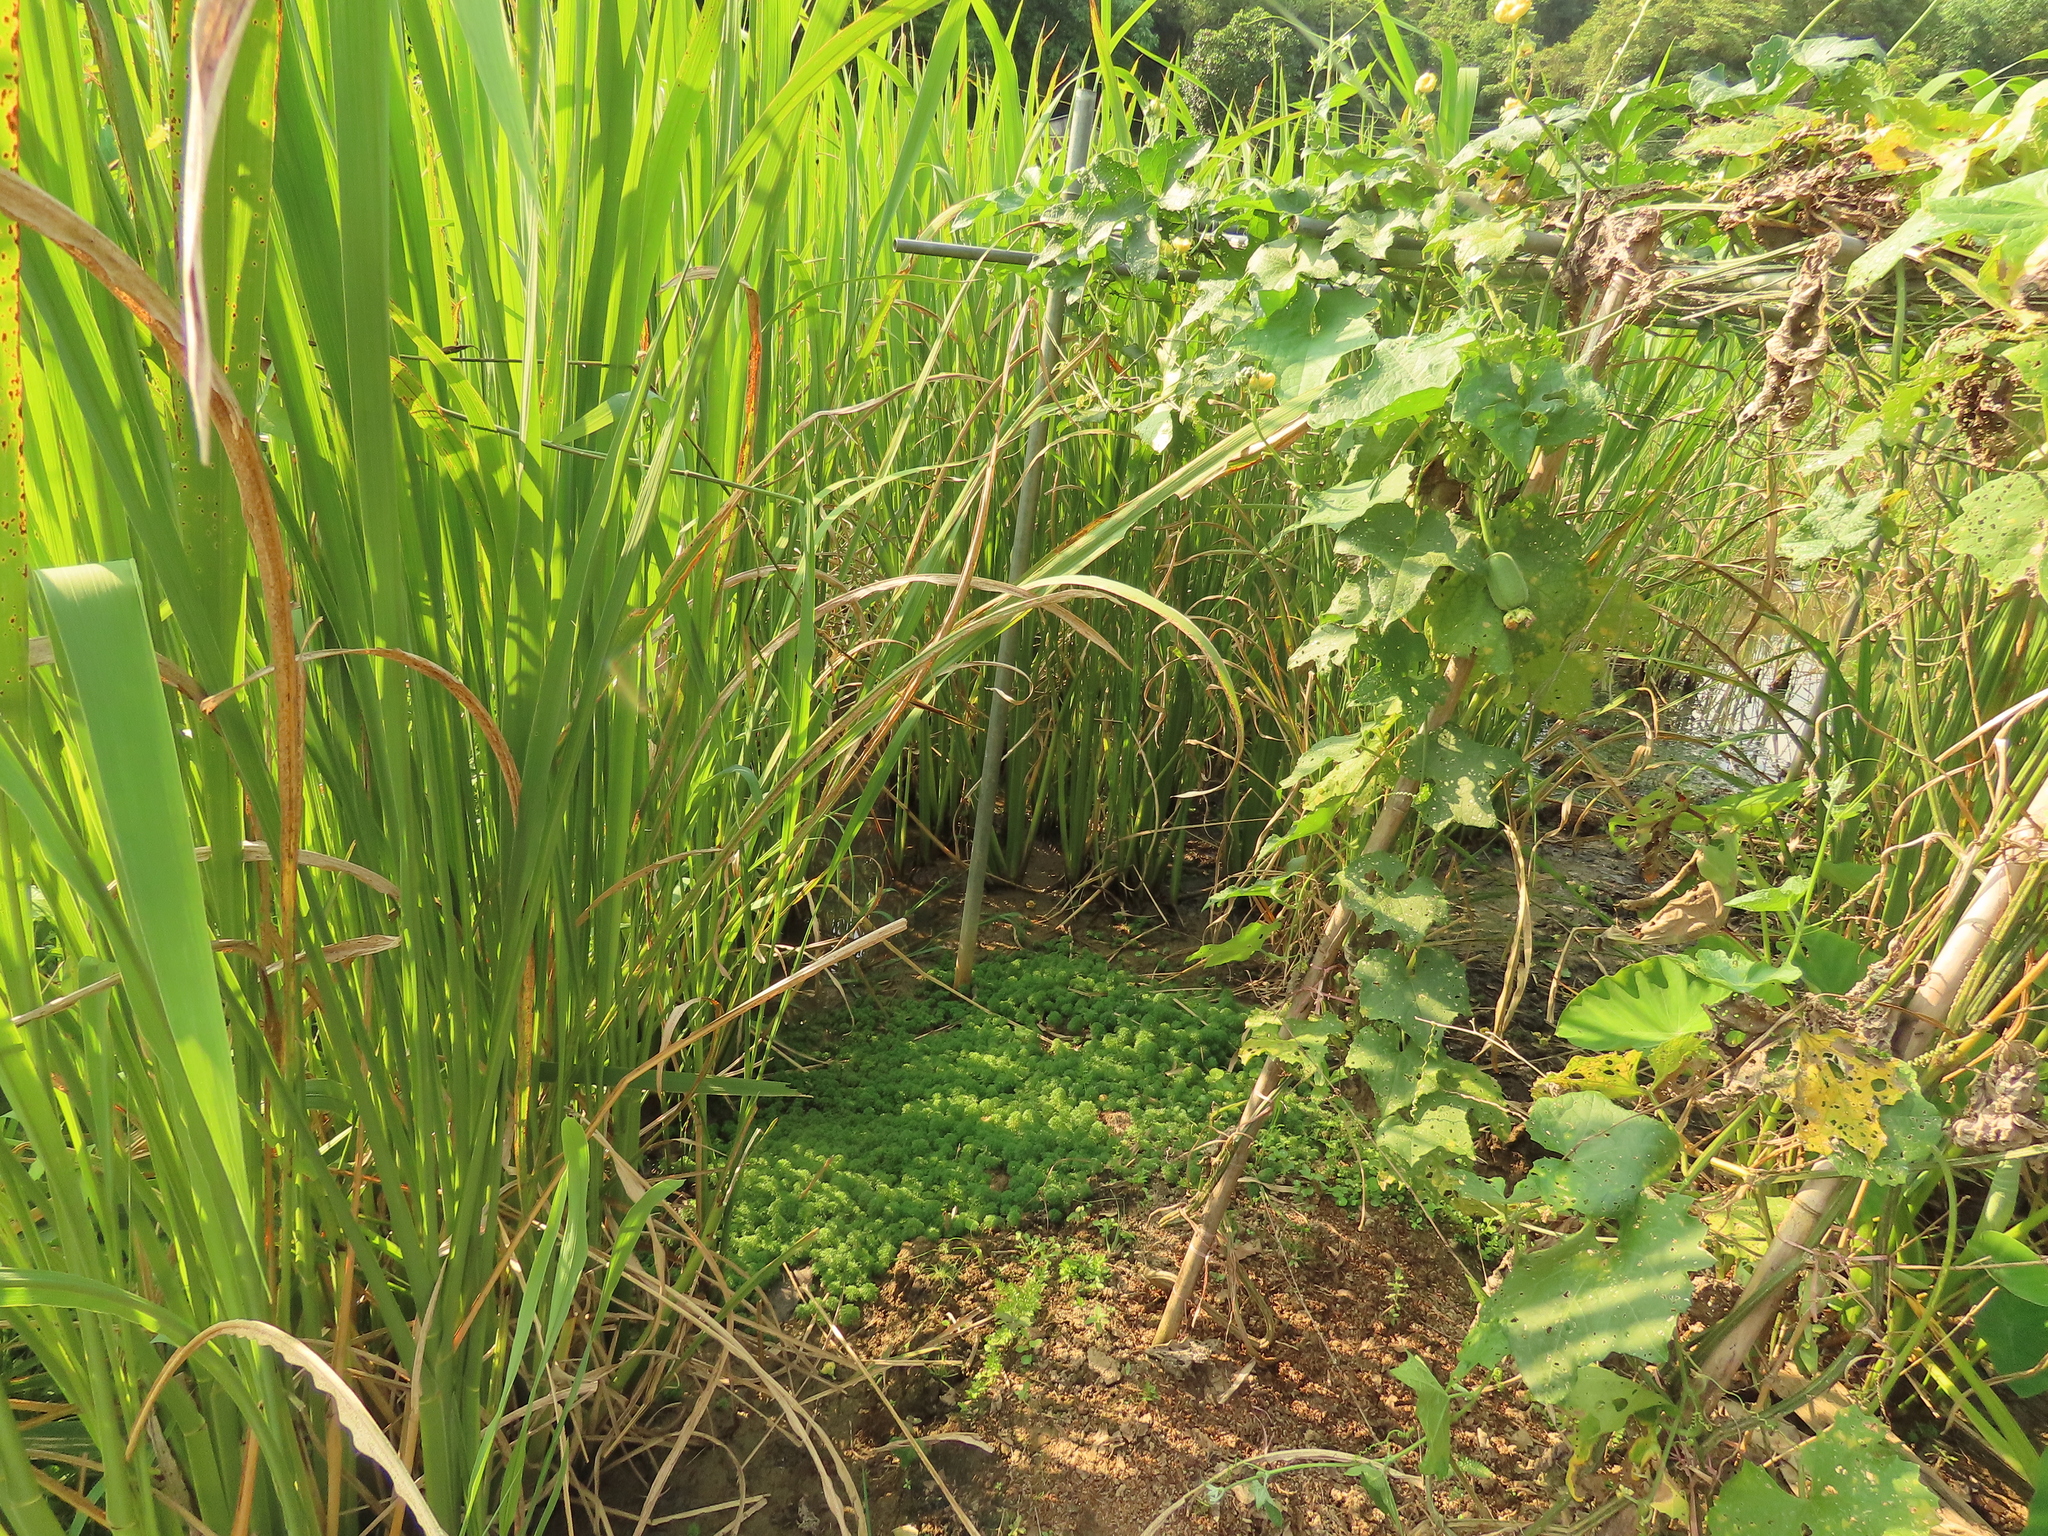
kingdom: Plantae
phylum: Tracheophyta
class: Polypodiopsida
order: Polypodiales
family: Pteridaceae
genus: Ceratopteris
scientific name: Ceratopteris thalictroides
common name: Water fern
